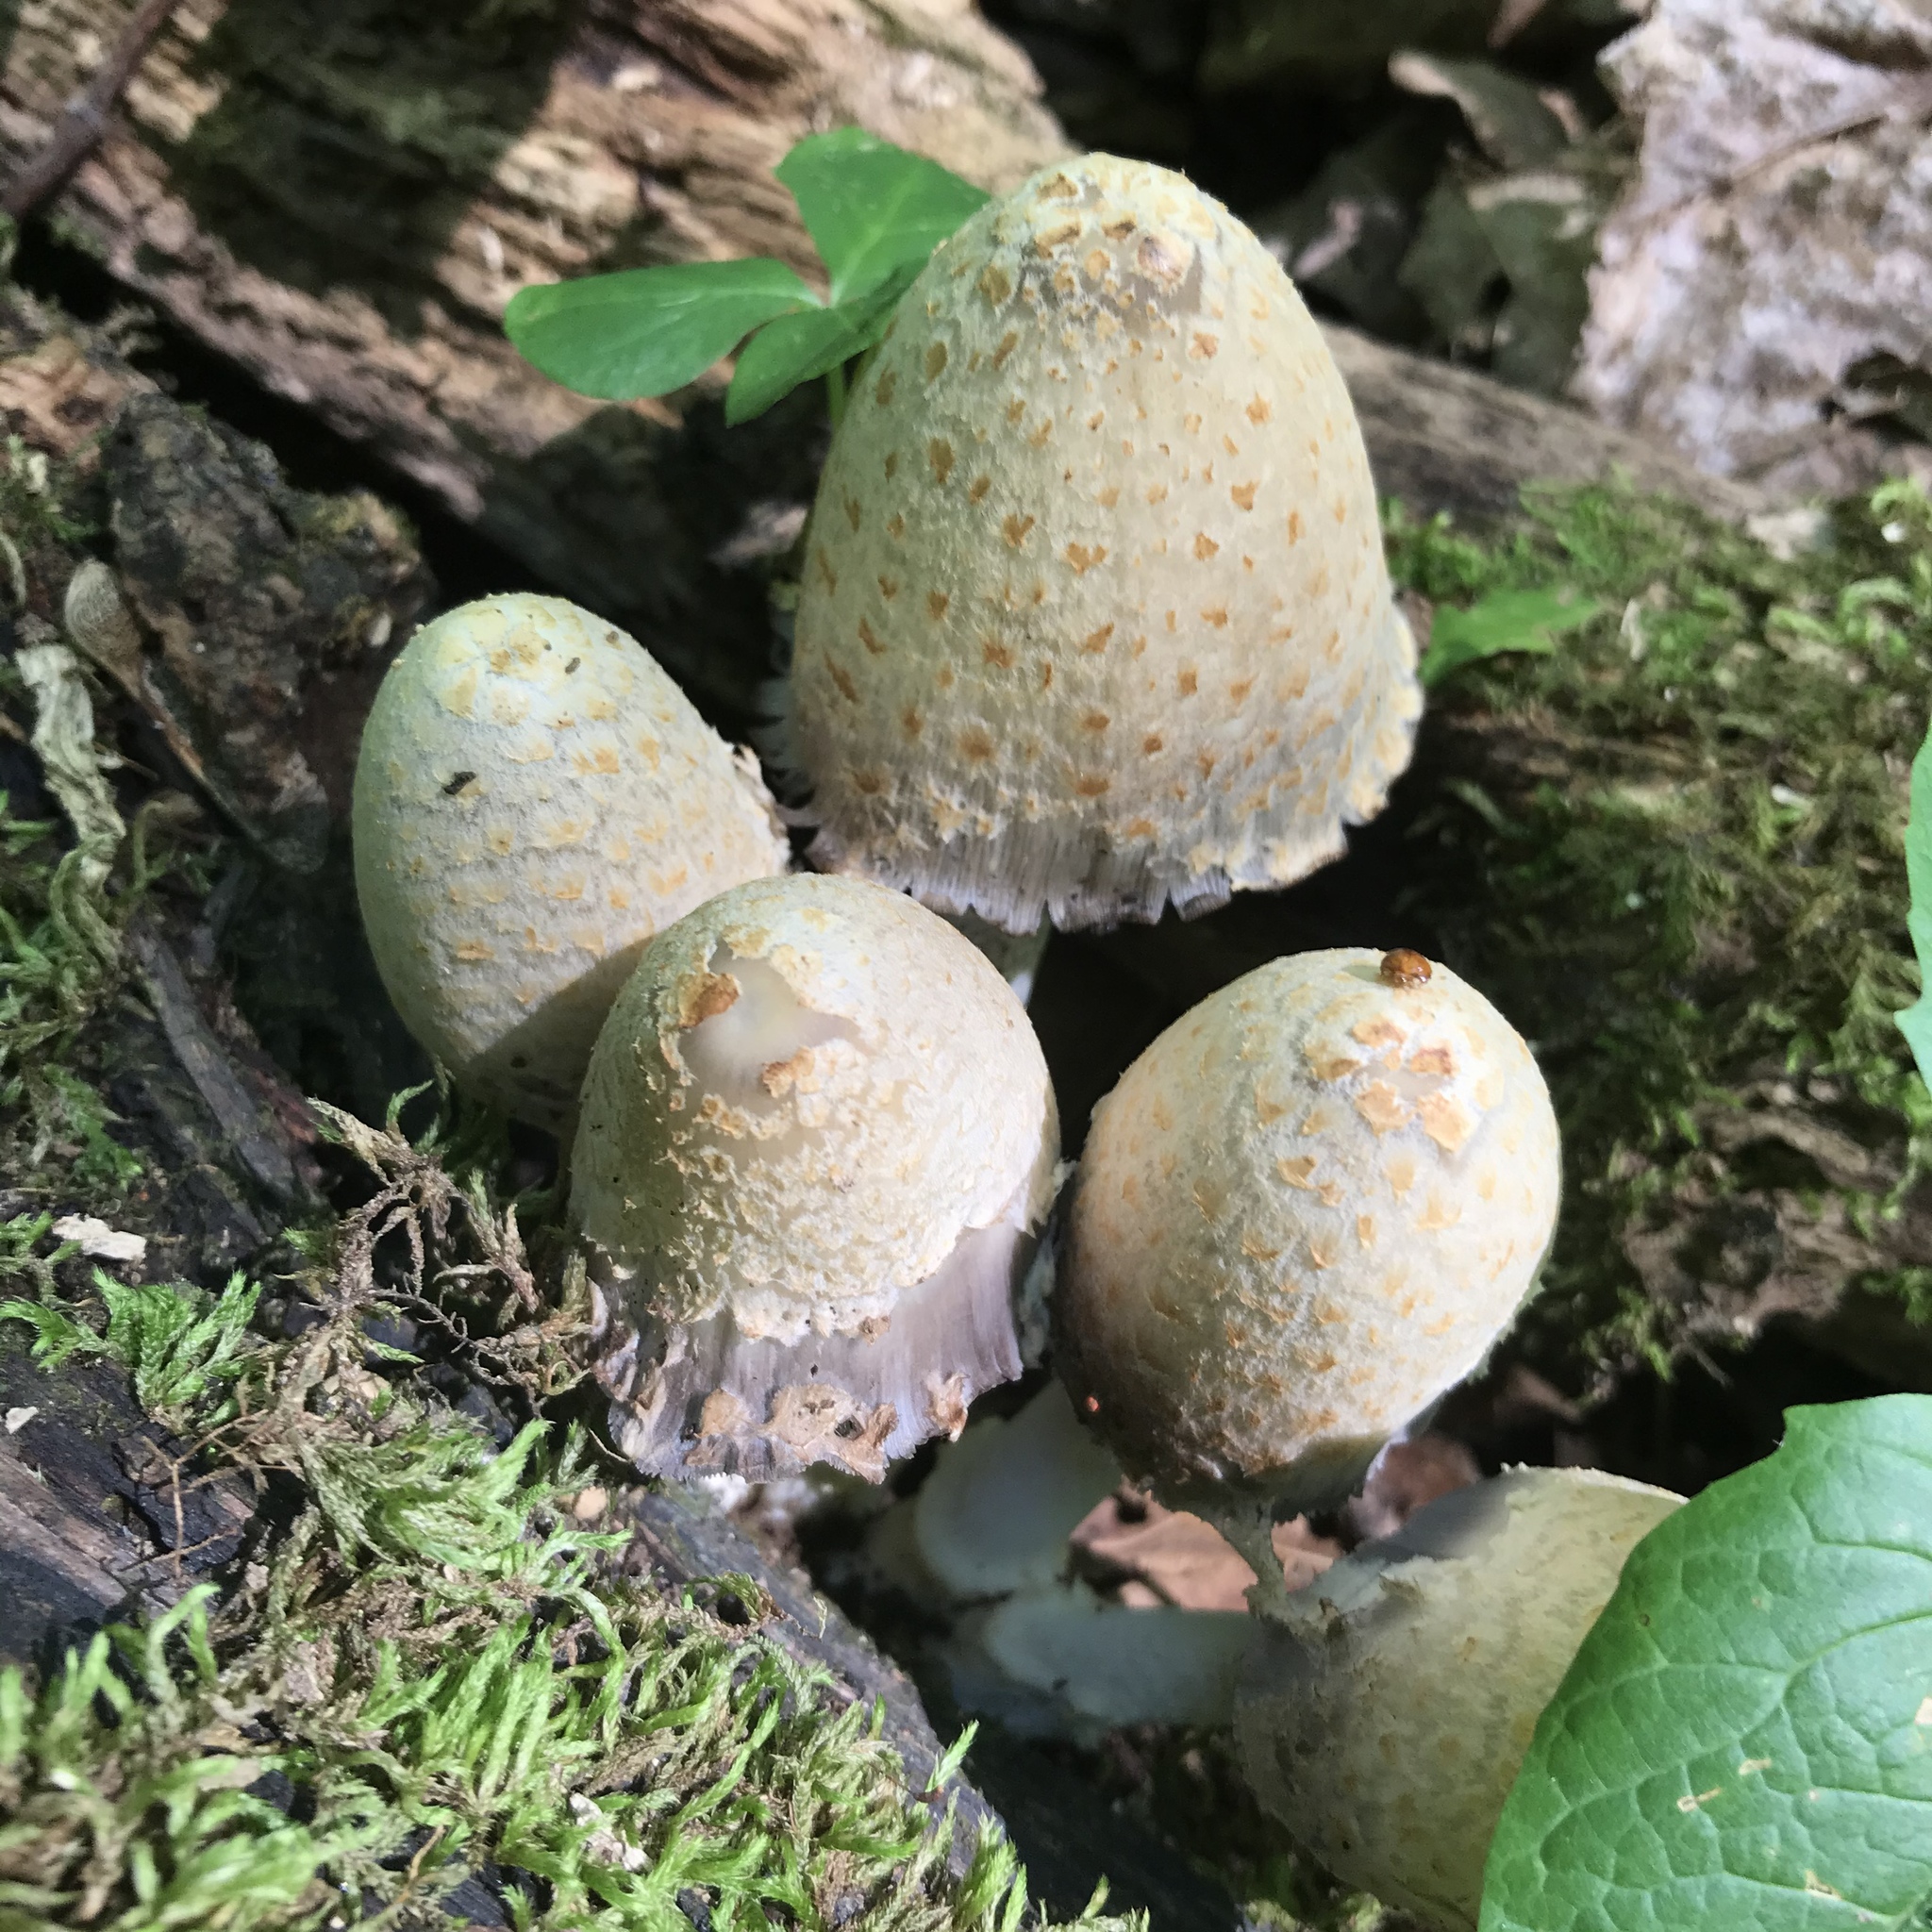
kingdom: Fungi
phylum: Basidiomycota
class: Agaricomycetes
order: Agaricales
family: Psathyrellaceae
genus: Coprinopsis
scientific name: Coprinopsis variegata
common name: Scaly ink cap
